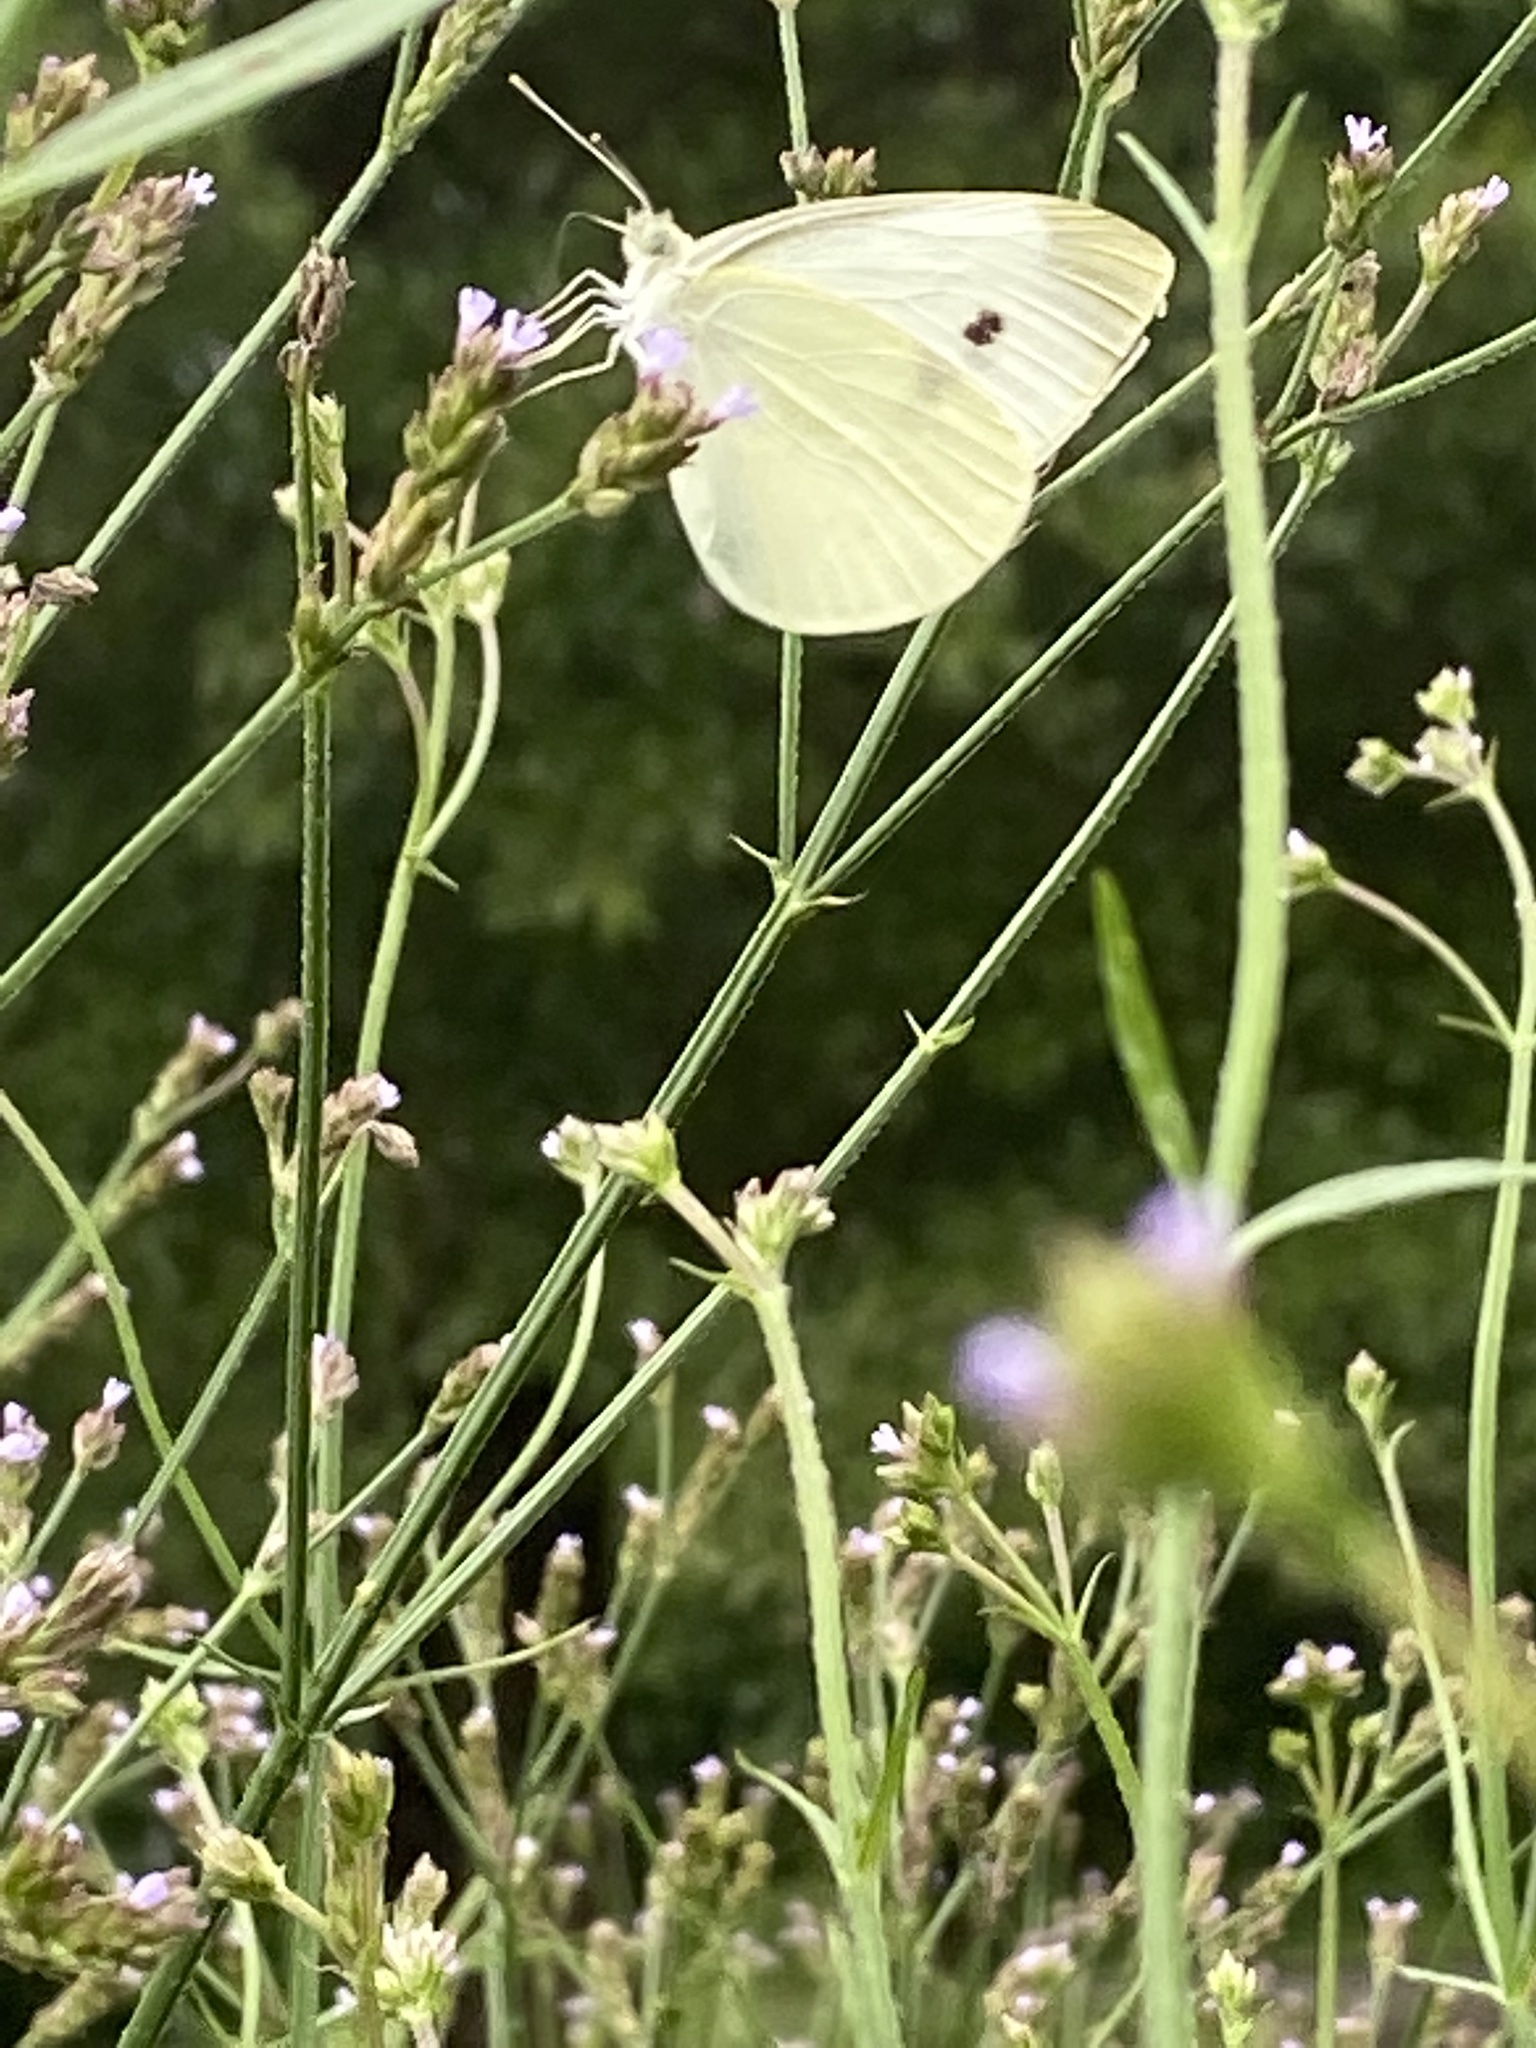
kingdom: Animalia
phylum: Arthropoda
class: Insecta
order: Lepidoptera
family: Pieridae
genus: Pieris
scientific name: Pieris rapae
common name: Small white
